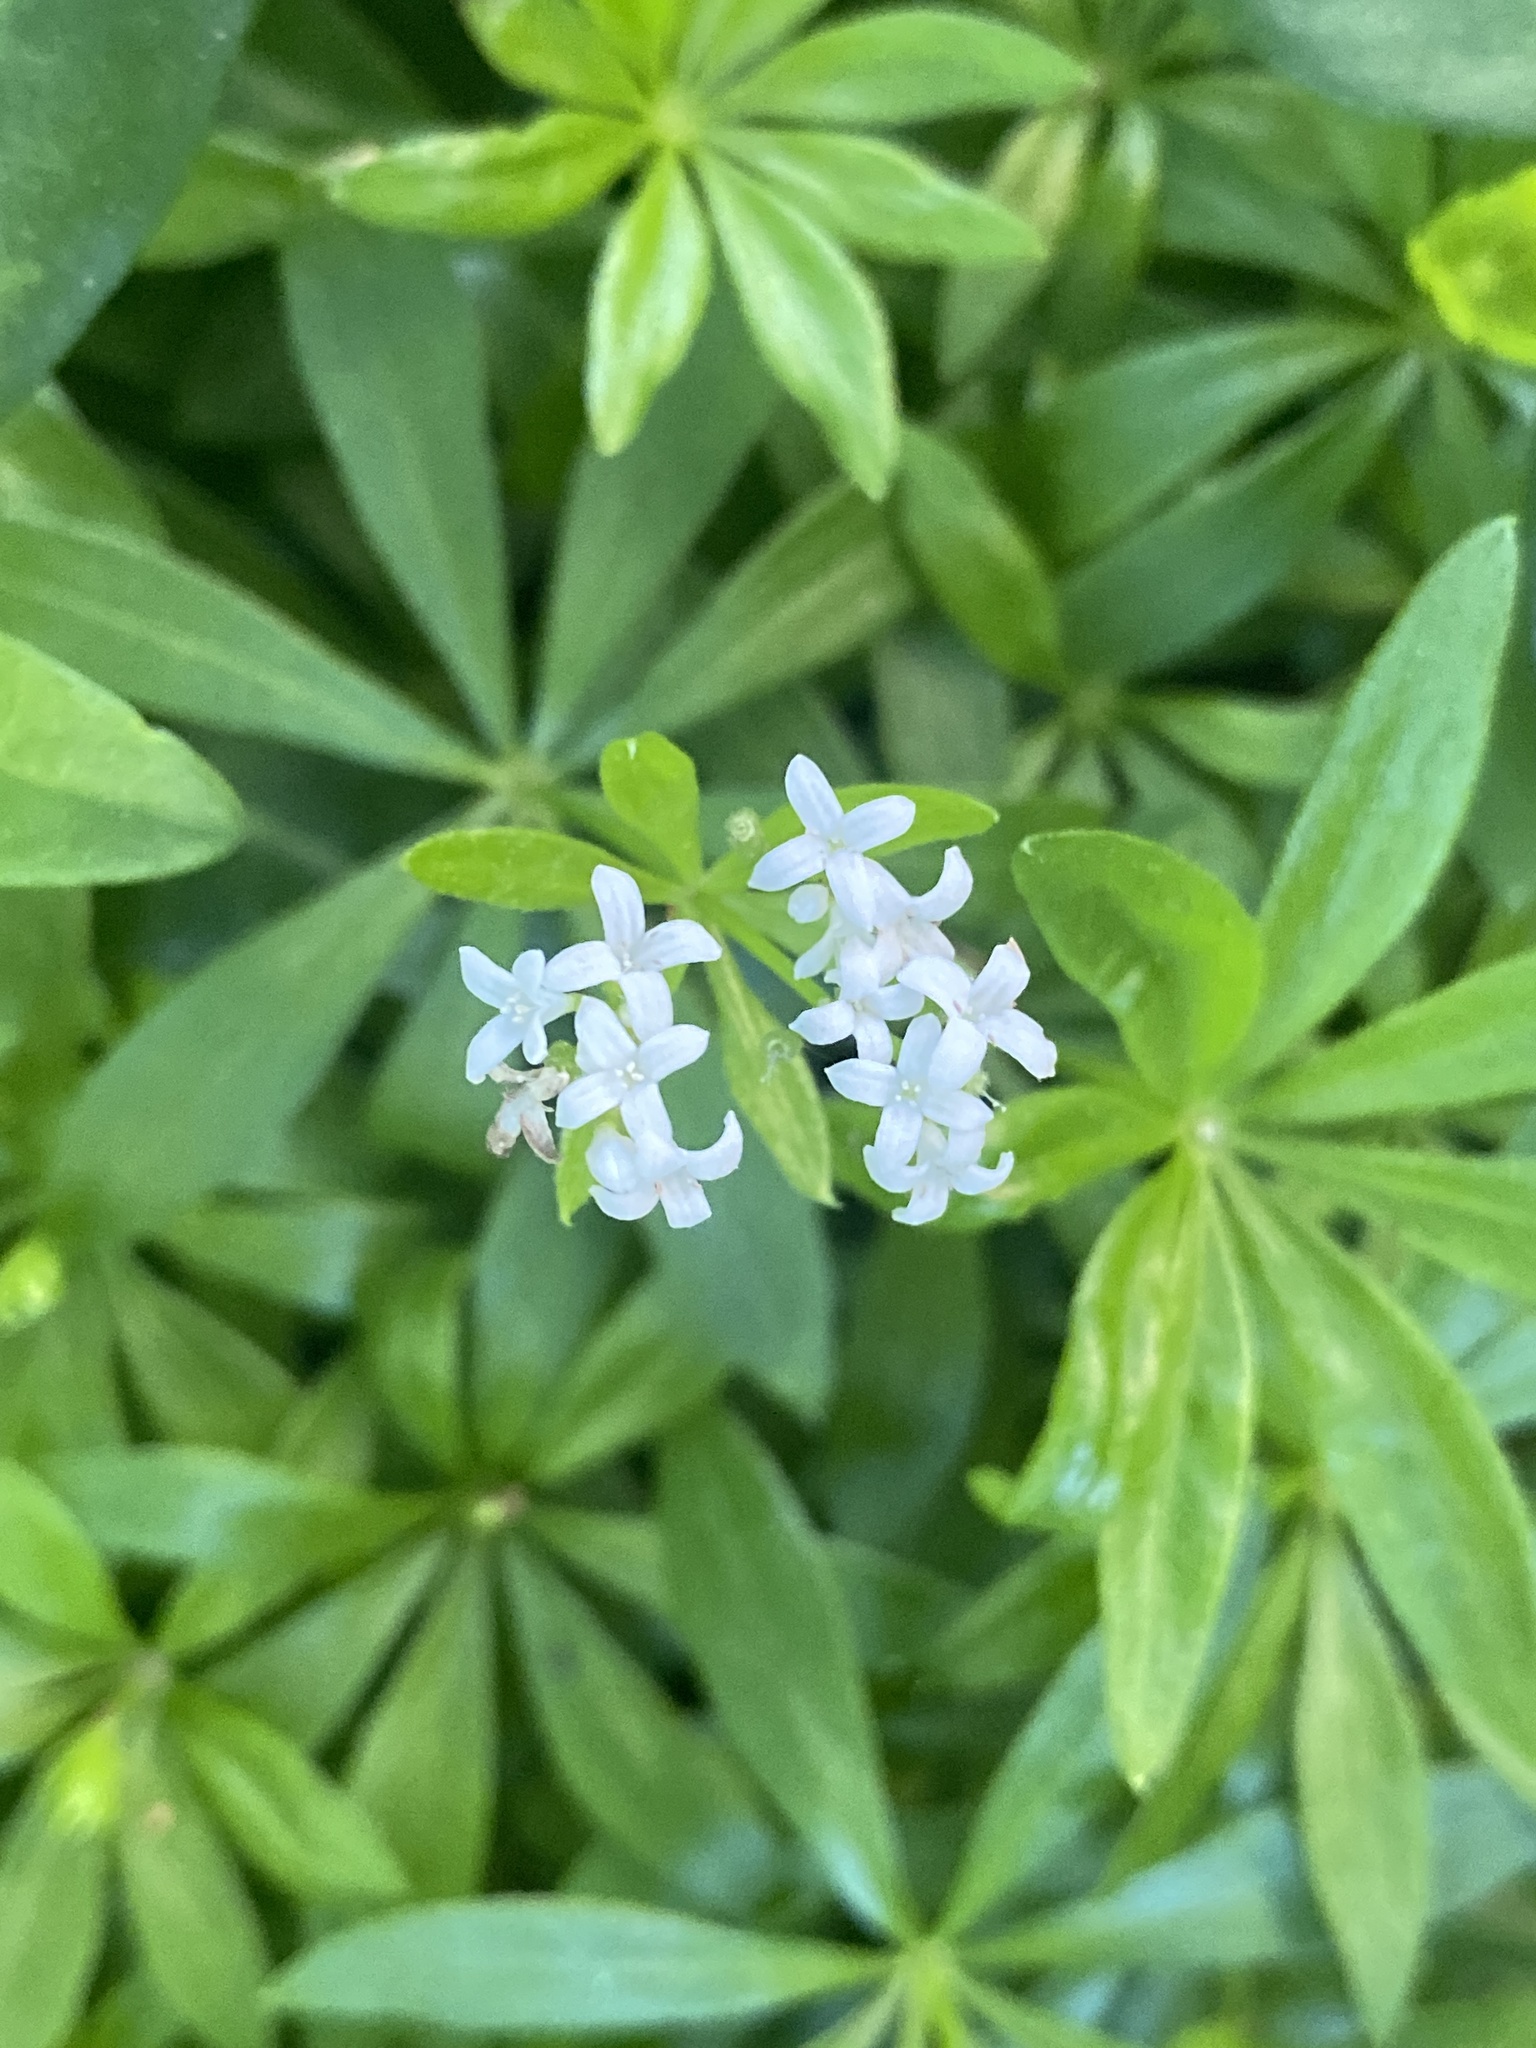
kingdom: Plantae
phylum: Tracheophyta
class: Magnoliopsida
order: Gentianales
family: Rubiaceae
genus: Galium
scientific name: Galium odoratum
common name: Sweet woodruff
